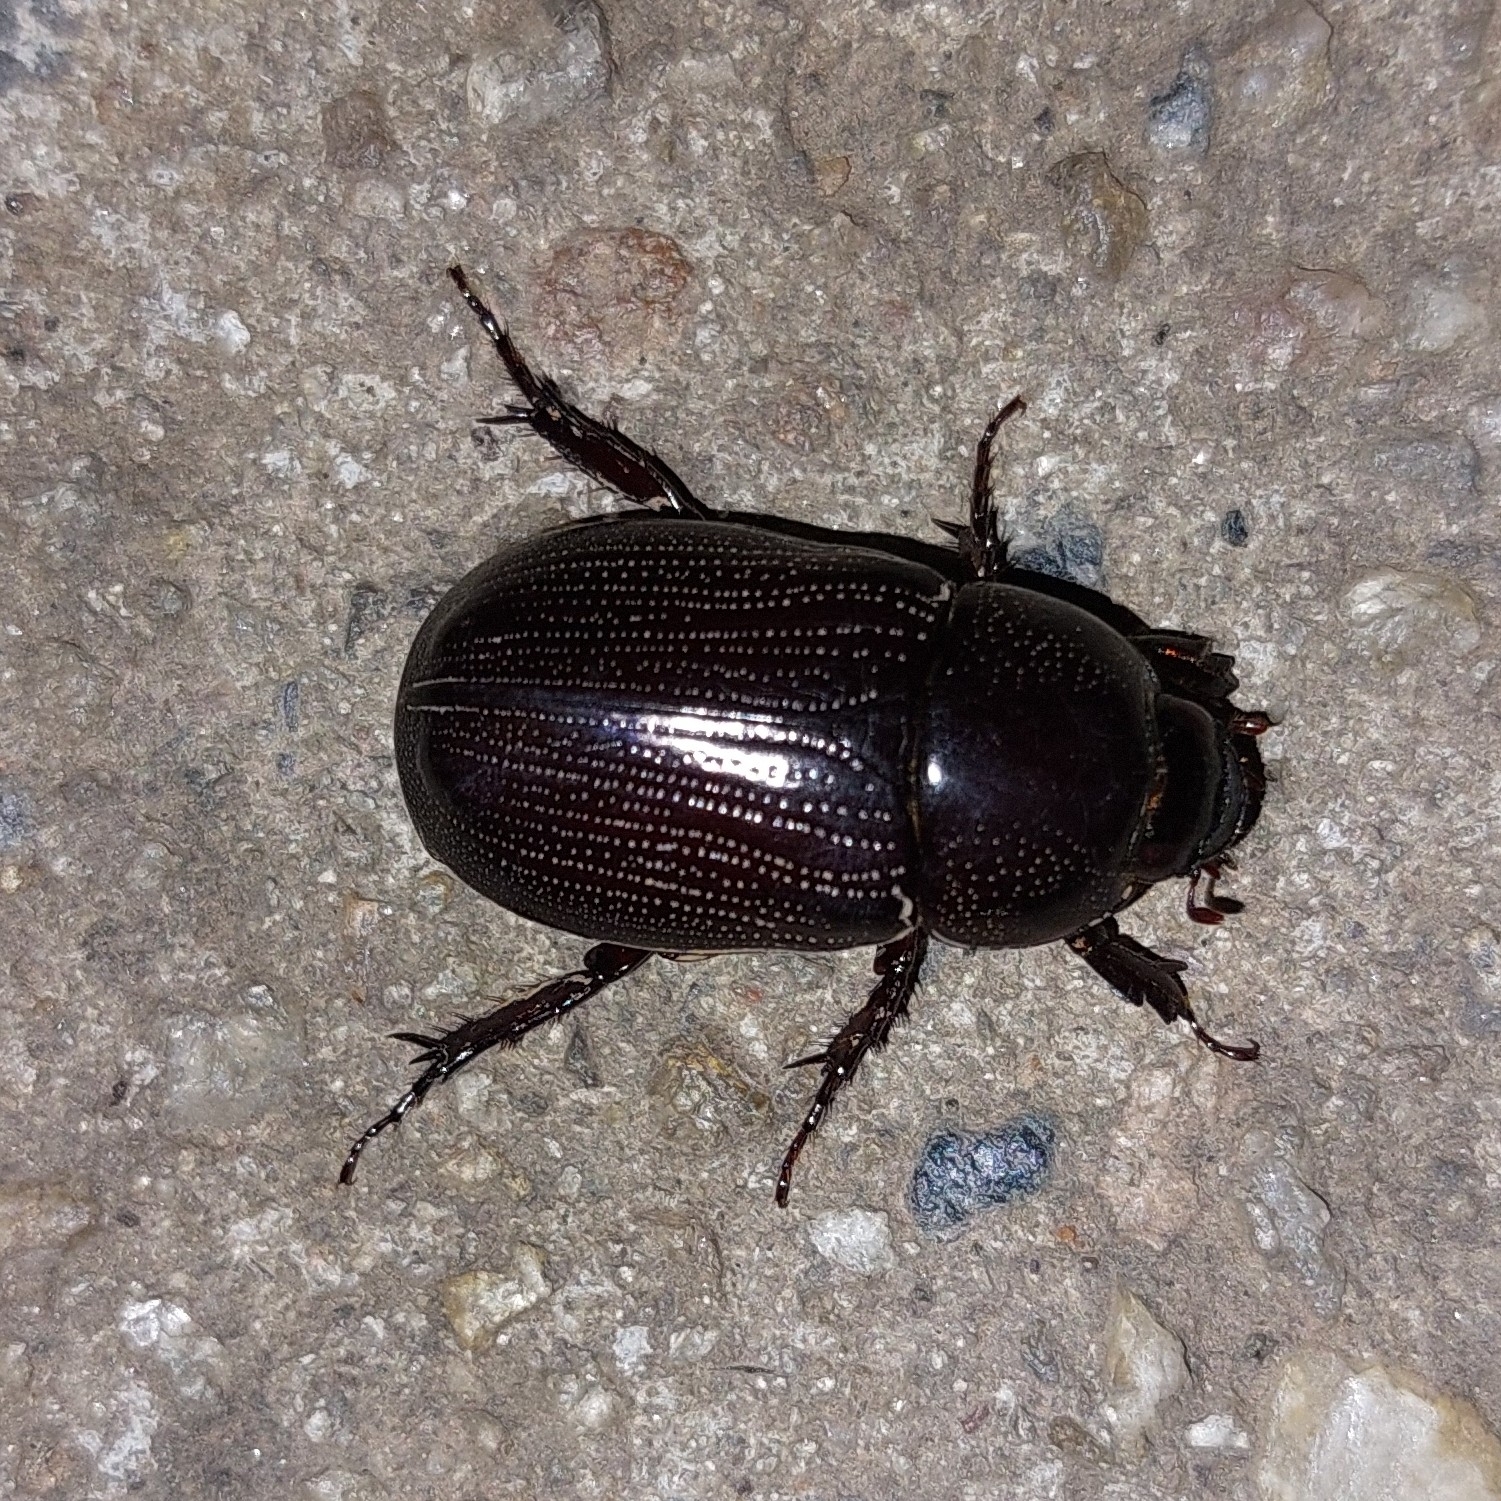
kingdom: Animalia
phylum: Arthropoda
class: Insecta
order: Coleoptera
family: Scarabaeidae
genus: Dyscinetus
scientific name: Dyscinetus morator
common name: Rice beetle
